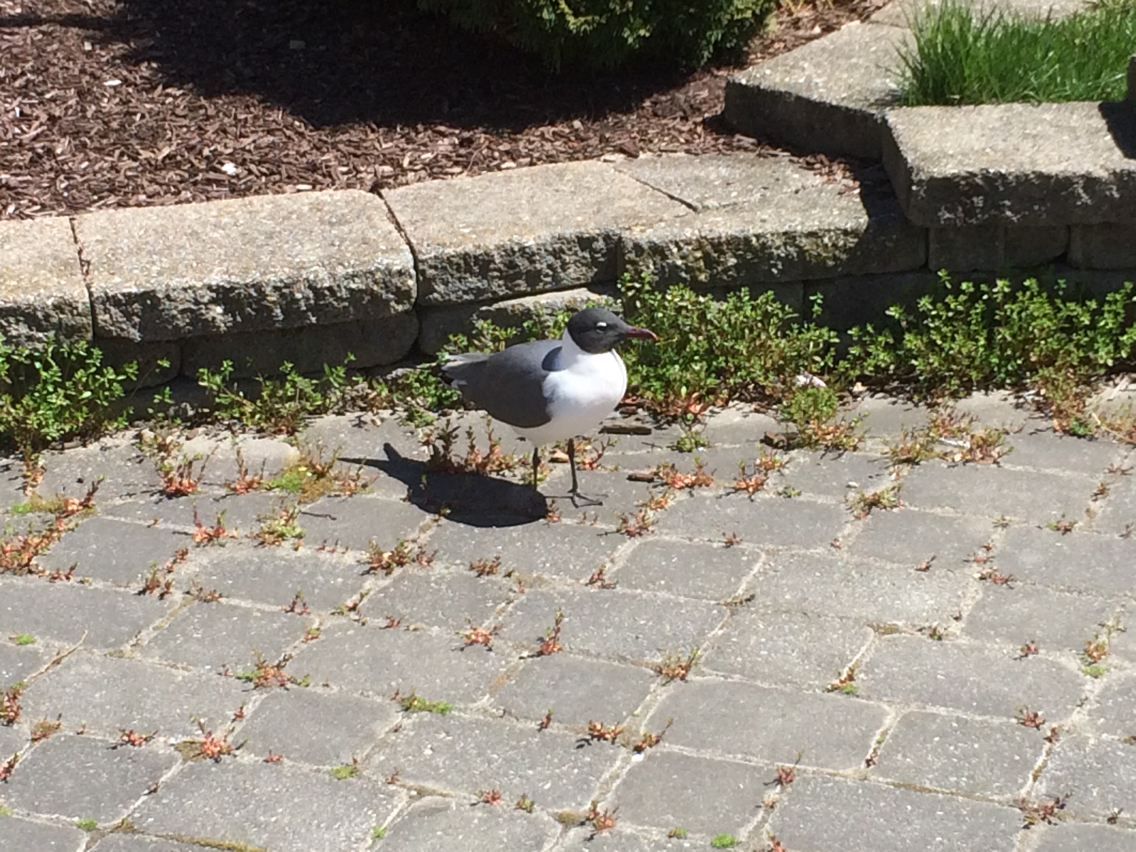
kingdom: Animalia
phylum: Chordata
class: Aves
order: Charadriiformes
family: Laridae
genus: Leucophaeus
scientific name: Leucophaeus atricilla
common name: Laughing gull
